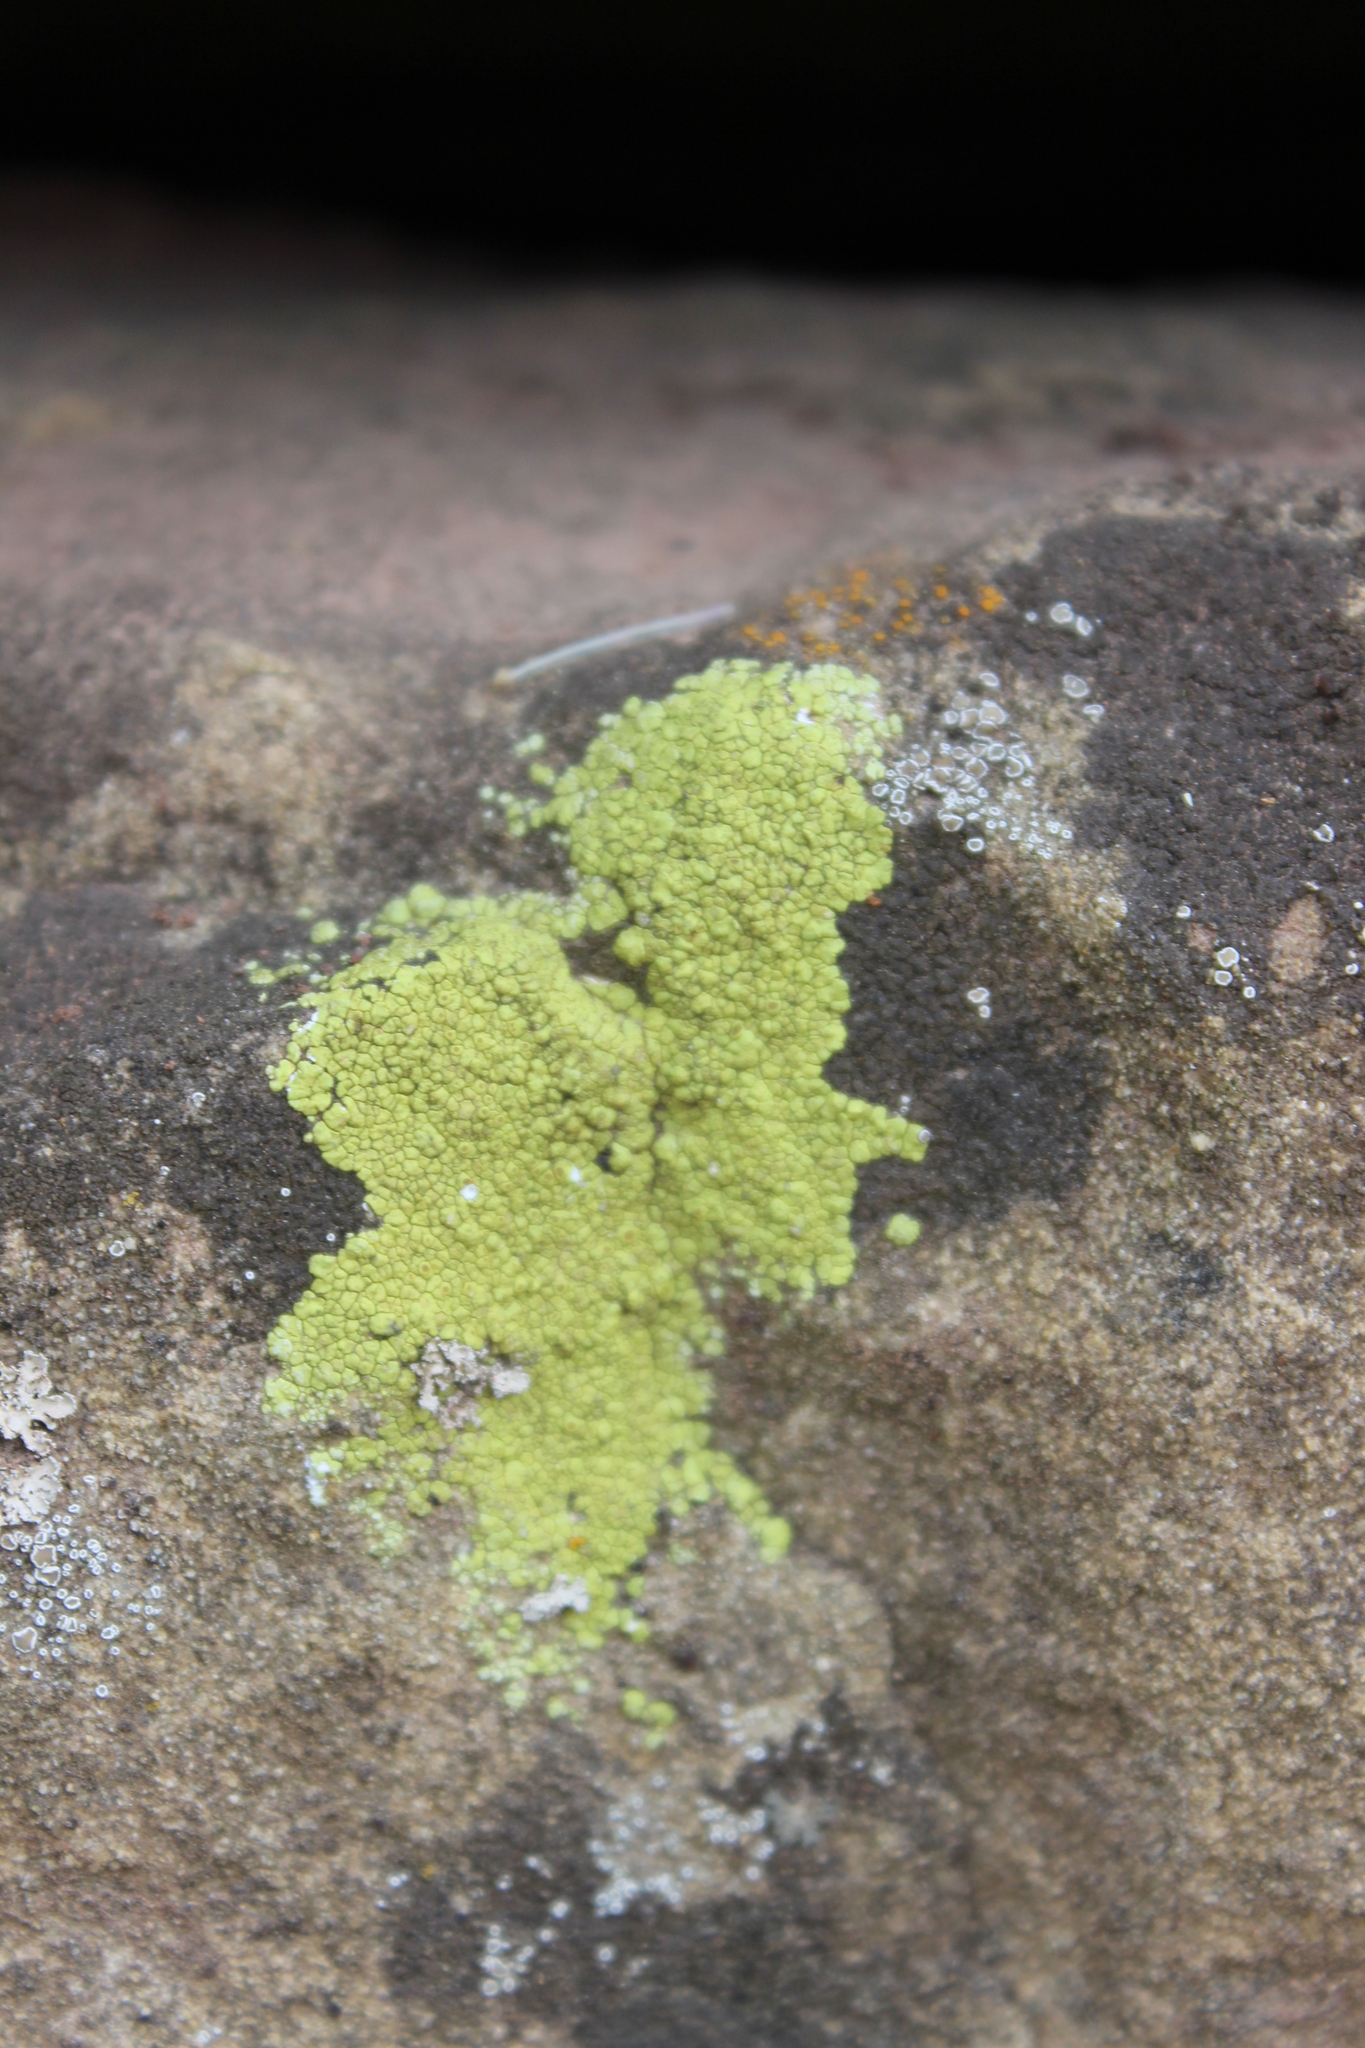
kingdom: Fungi
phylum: Ascomycota
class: Lecanoromycetes
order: Acarosporales
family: Acarosporaceae
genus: Acarospora
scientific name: Acarospora socialis
